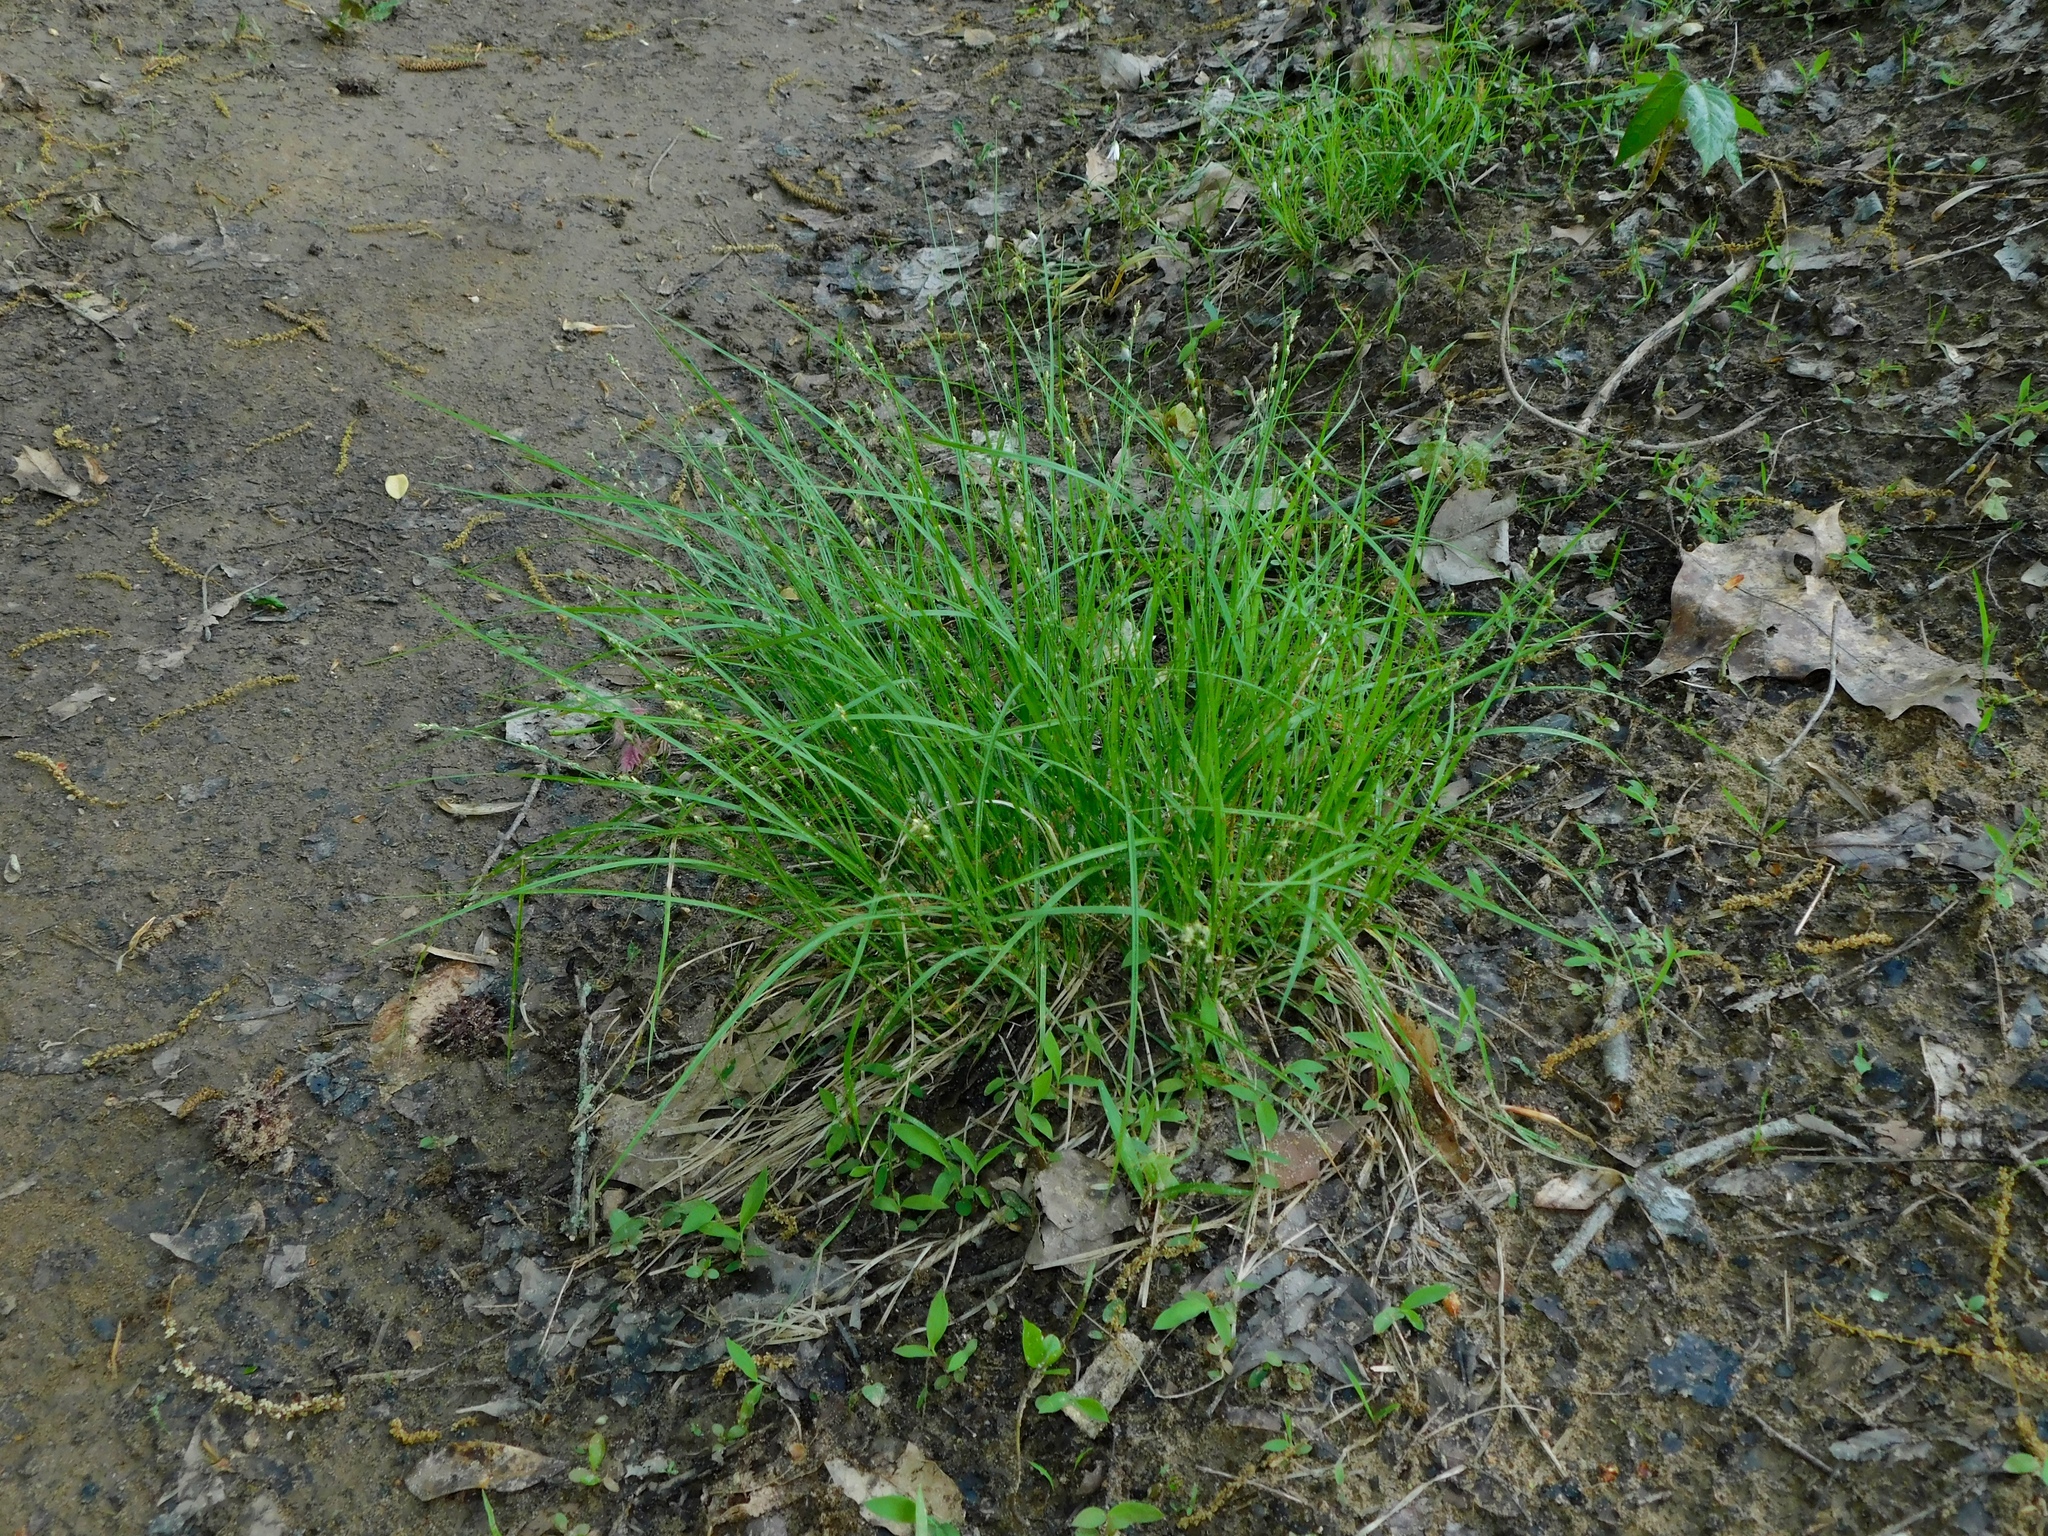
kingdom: Plantae
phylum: Tracheophyta
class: Liliopsida
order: Poales
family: Cyperaceae
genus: Carex
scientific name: Carex radiata
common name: Eastern star sedge
